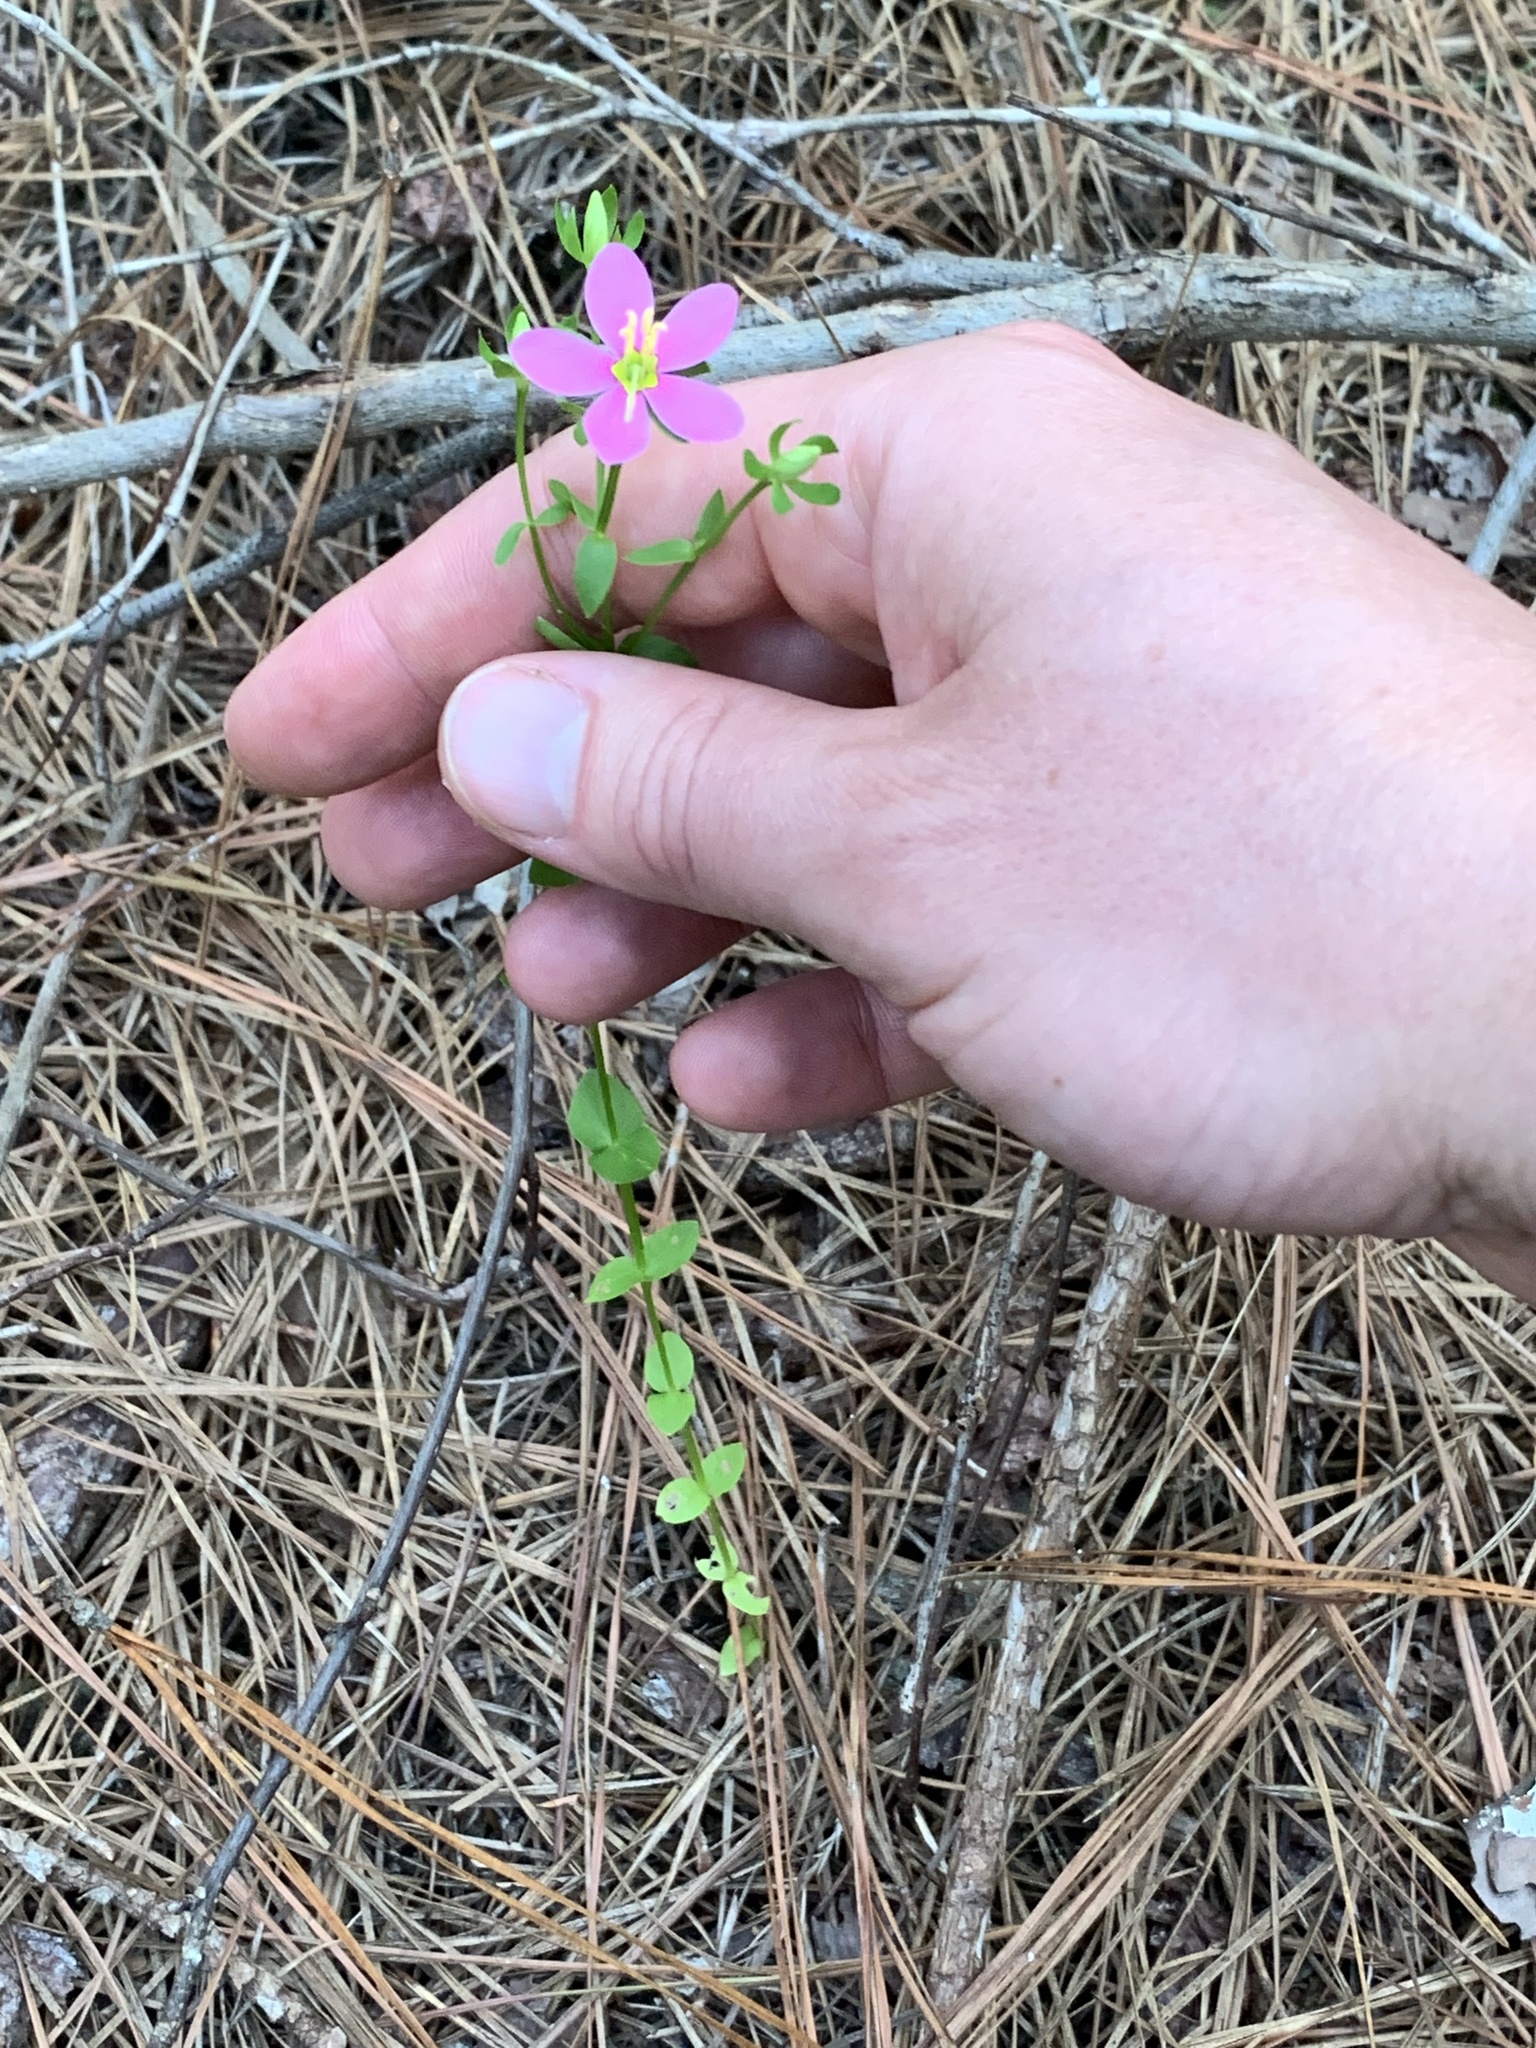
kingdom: Plantae
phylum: Tracheophyta
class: Magnoliopsida
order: Gentianales
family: Gentianaceae
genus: Sabatia
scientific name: Sabatia angularis
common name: Rose-pink
